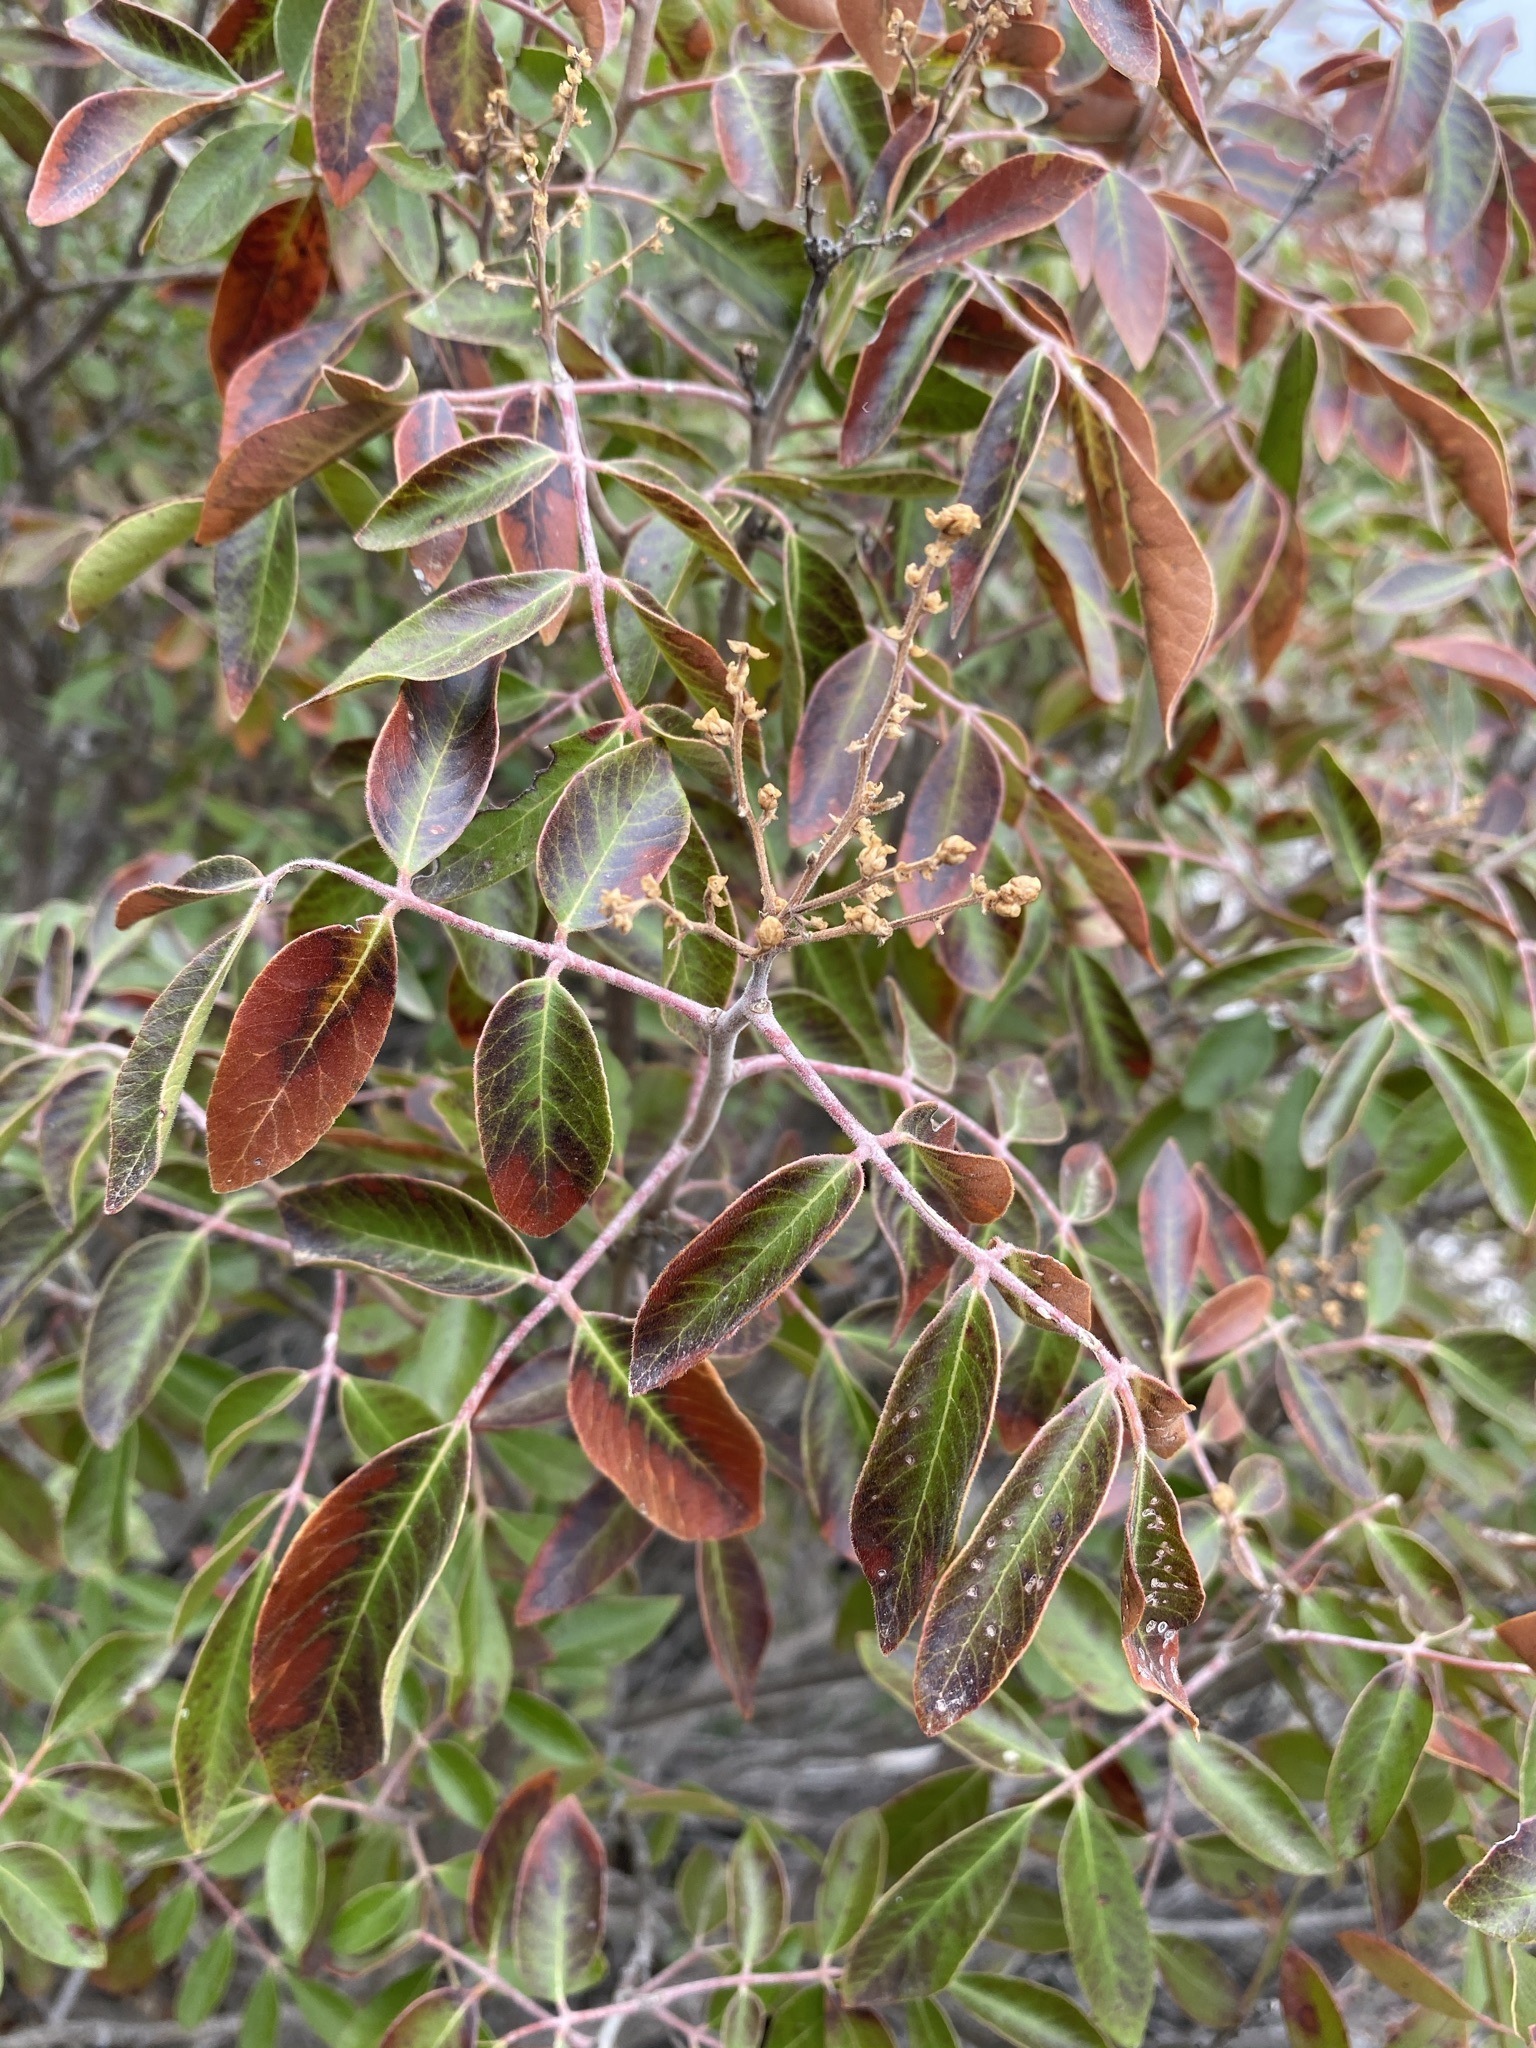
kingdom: Plantae
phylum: Tracheophyta
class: Magnoliopsida
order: Sapindales
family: Anacardiaceae
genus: Rhus
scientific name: Rhus virens
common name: Evergreen sumac
